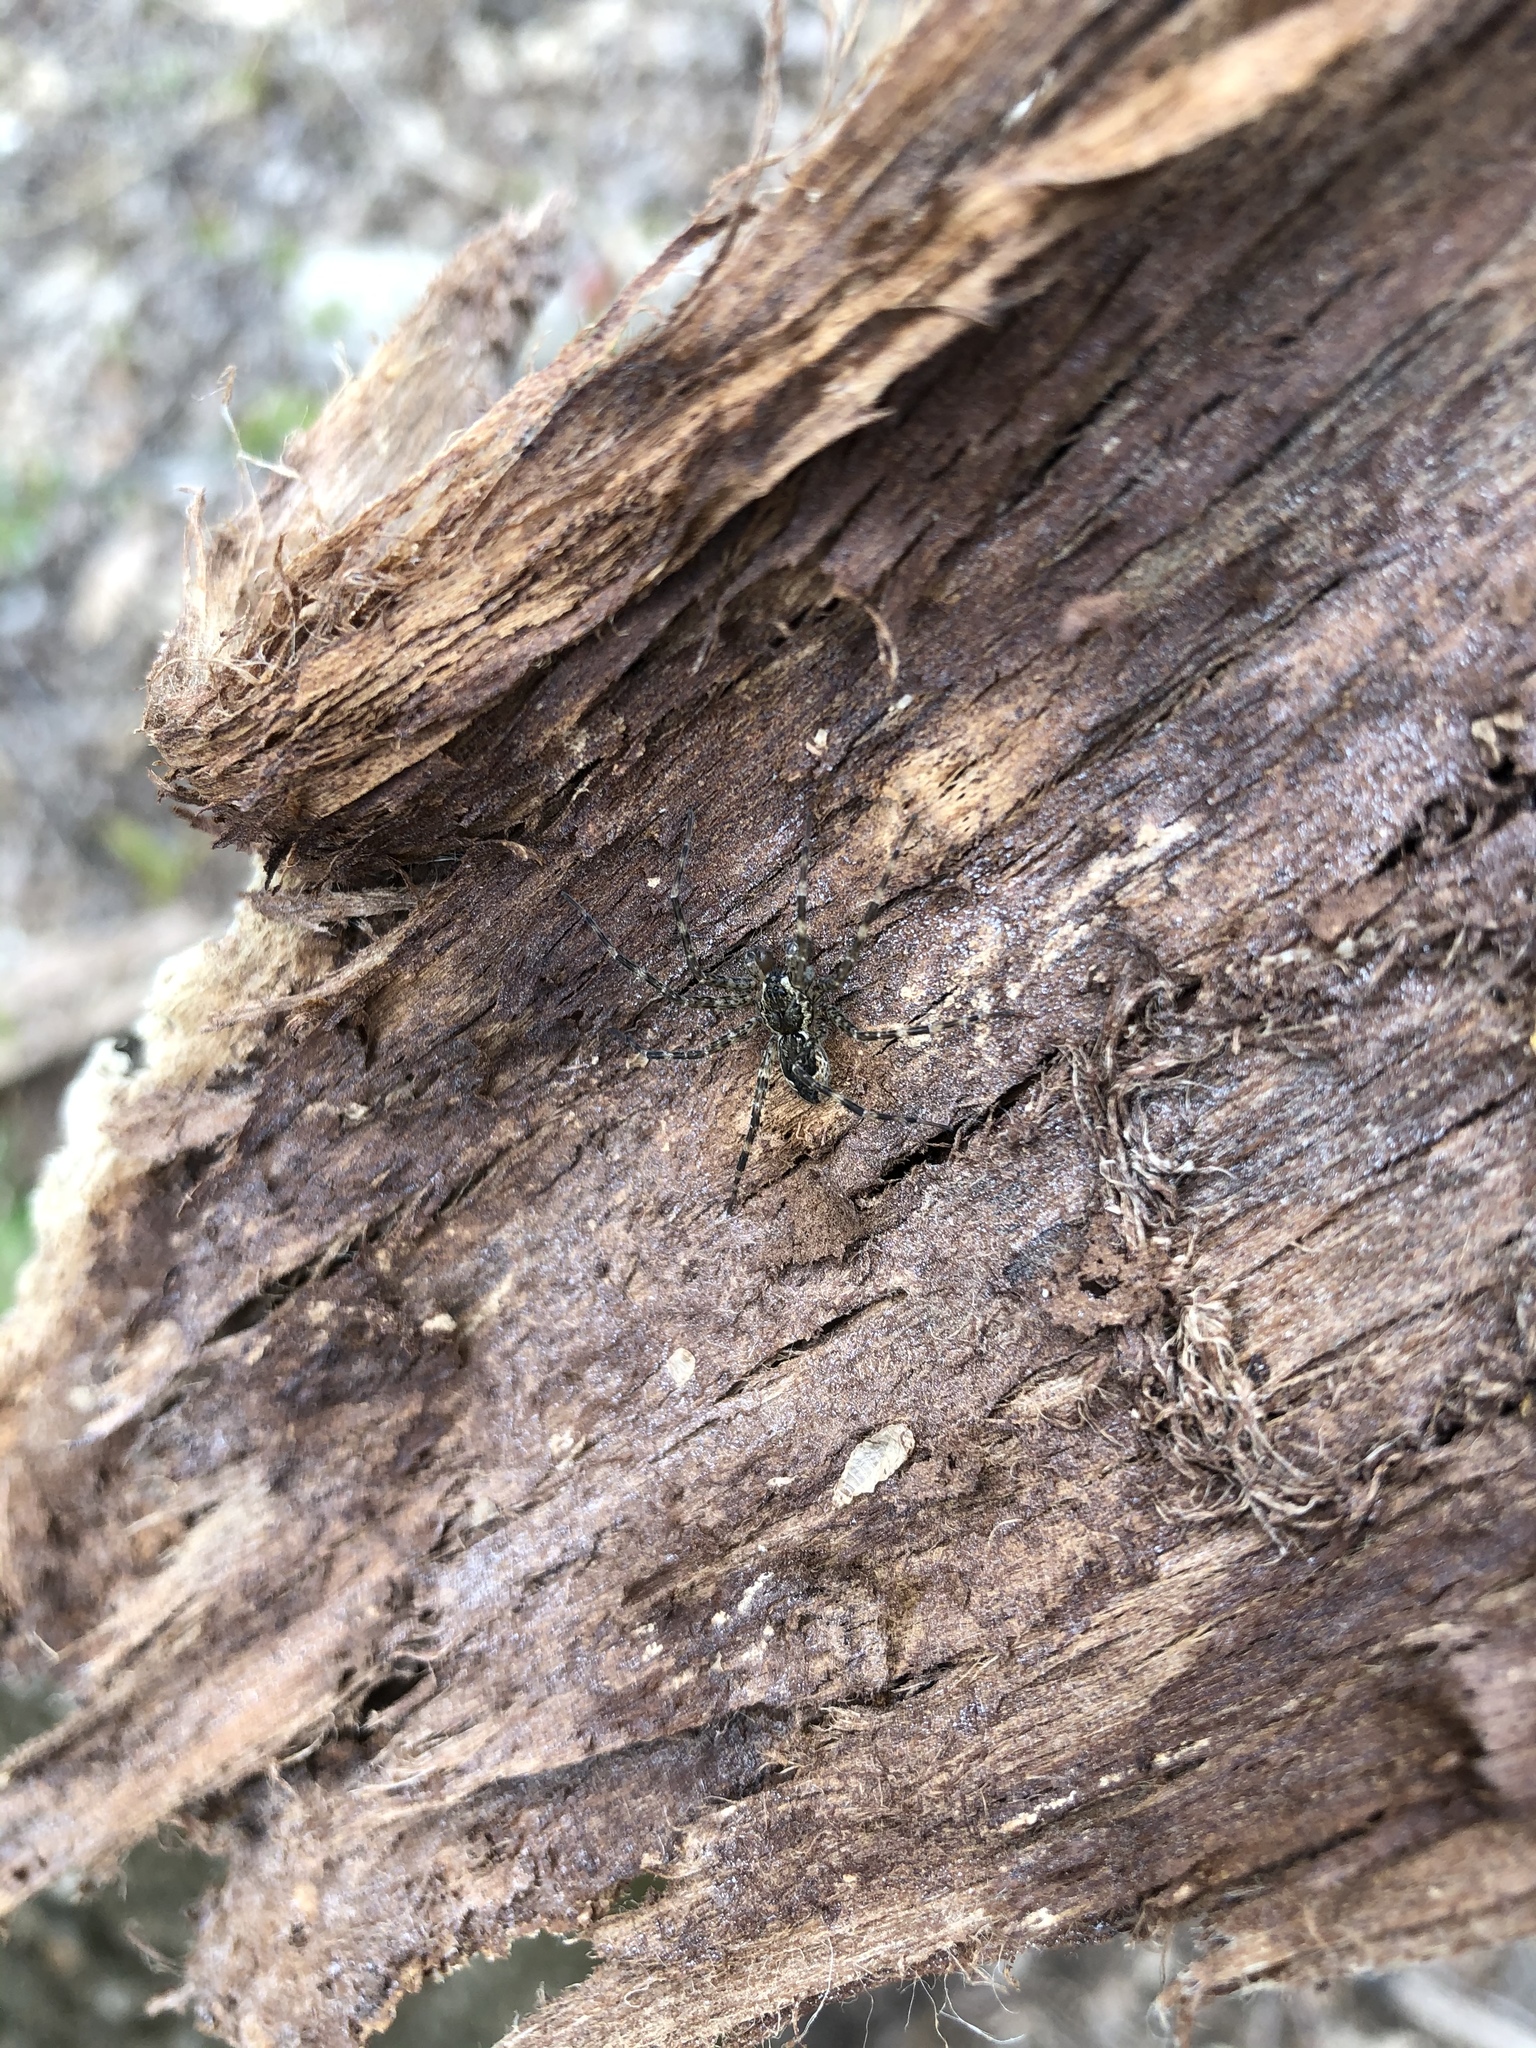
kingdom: Animalia
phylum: Arthropoda
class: Arachnida
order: Araneae
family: Pisauridae
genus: Dolomedes
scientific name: Dolomedes tenebrosus
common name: Dark fishing spider
